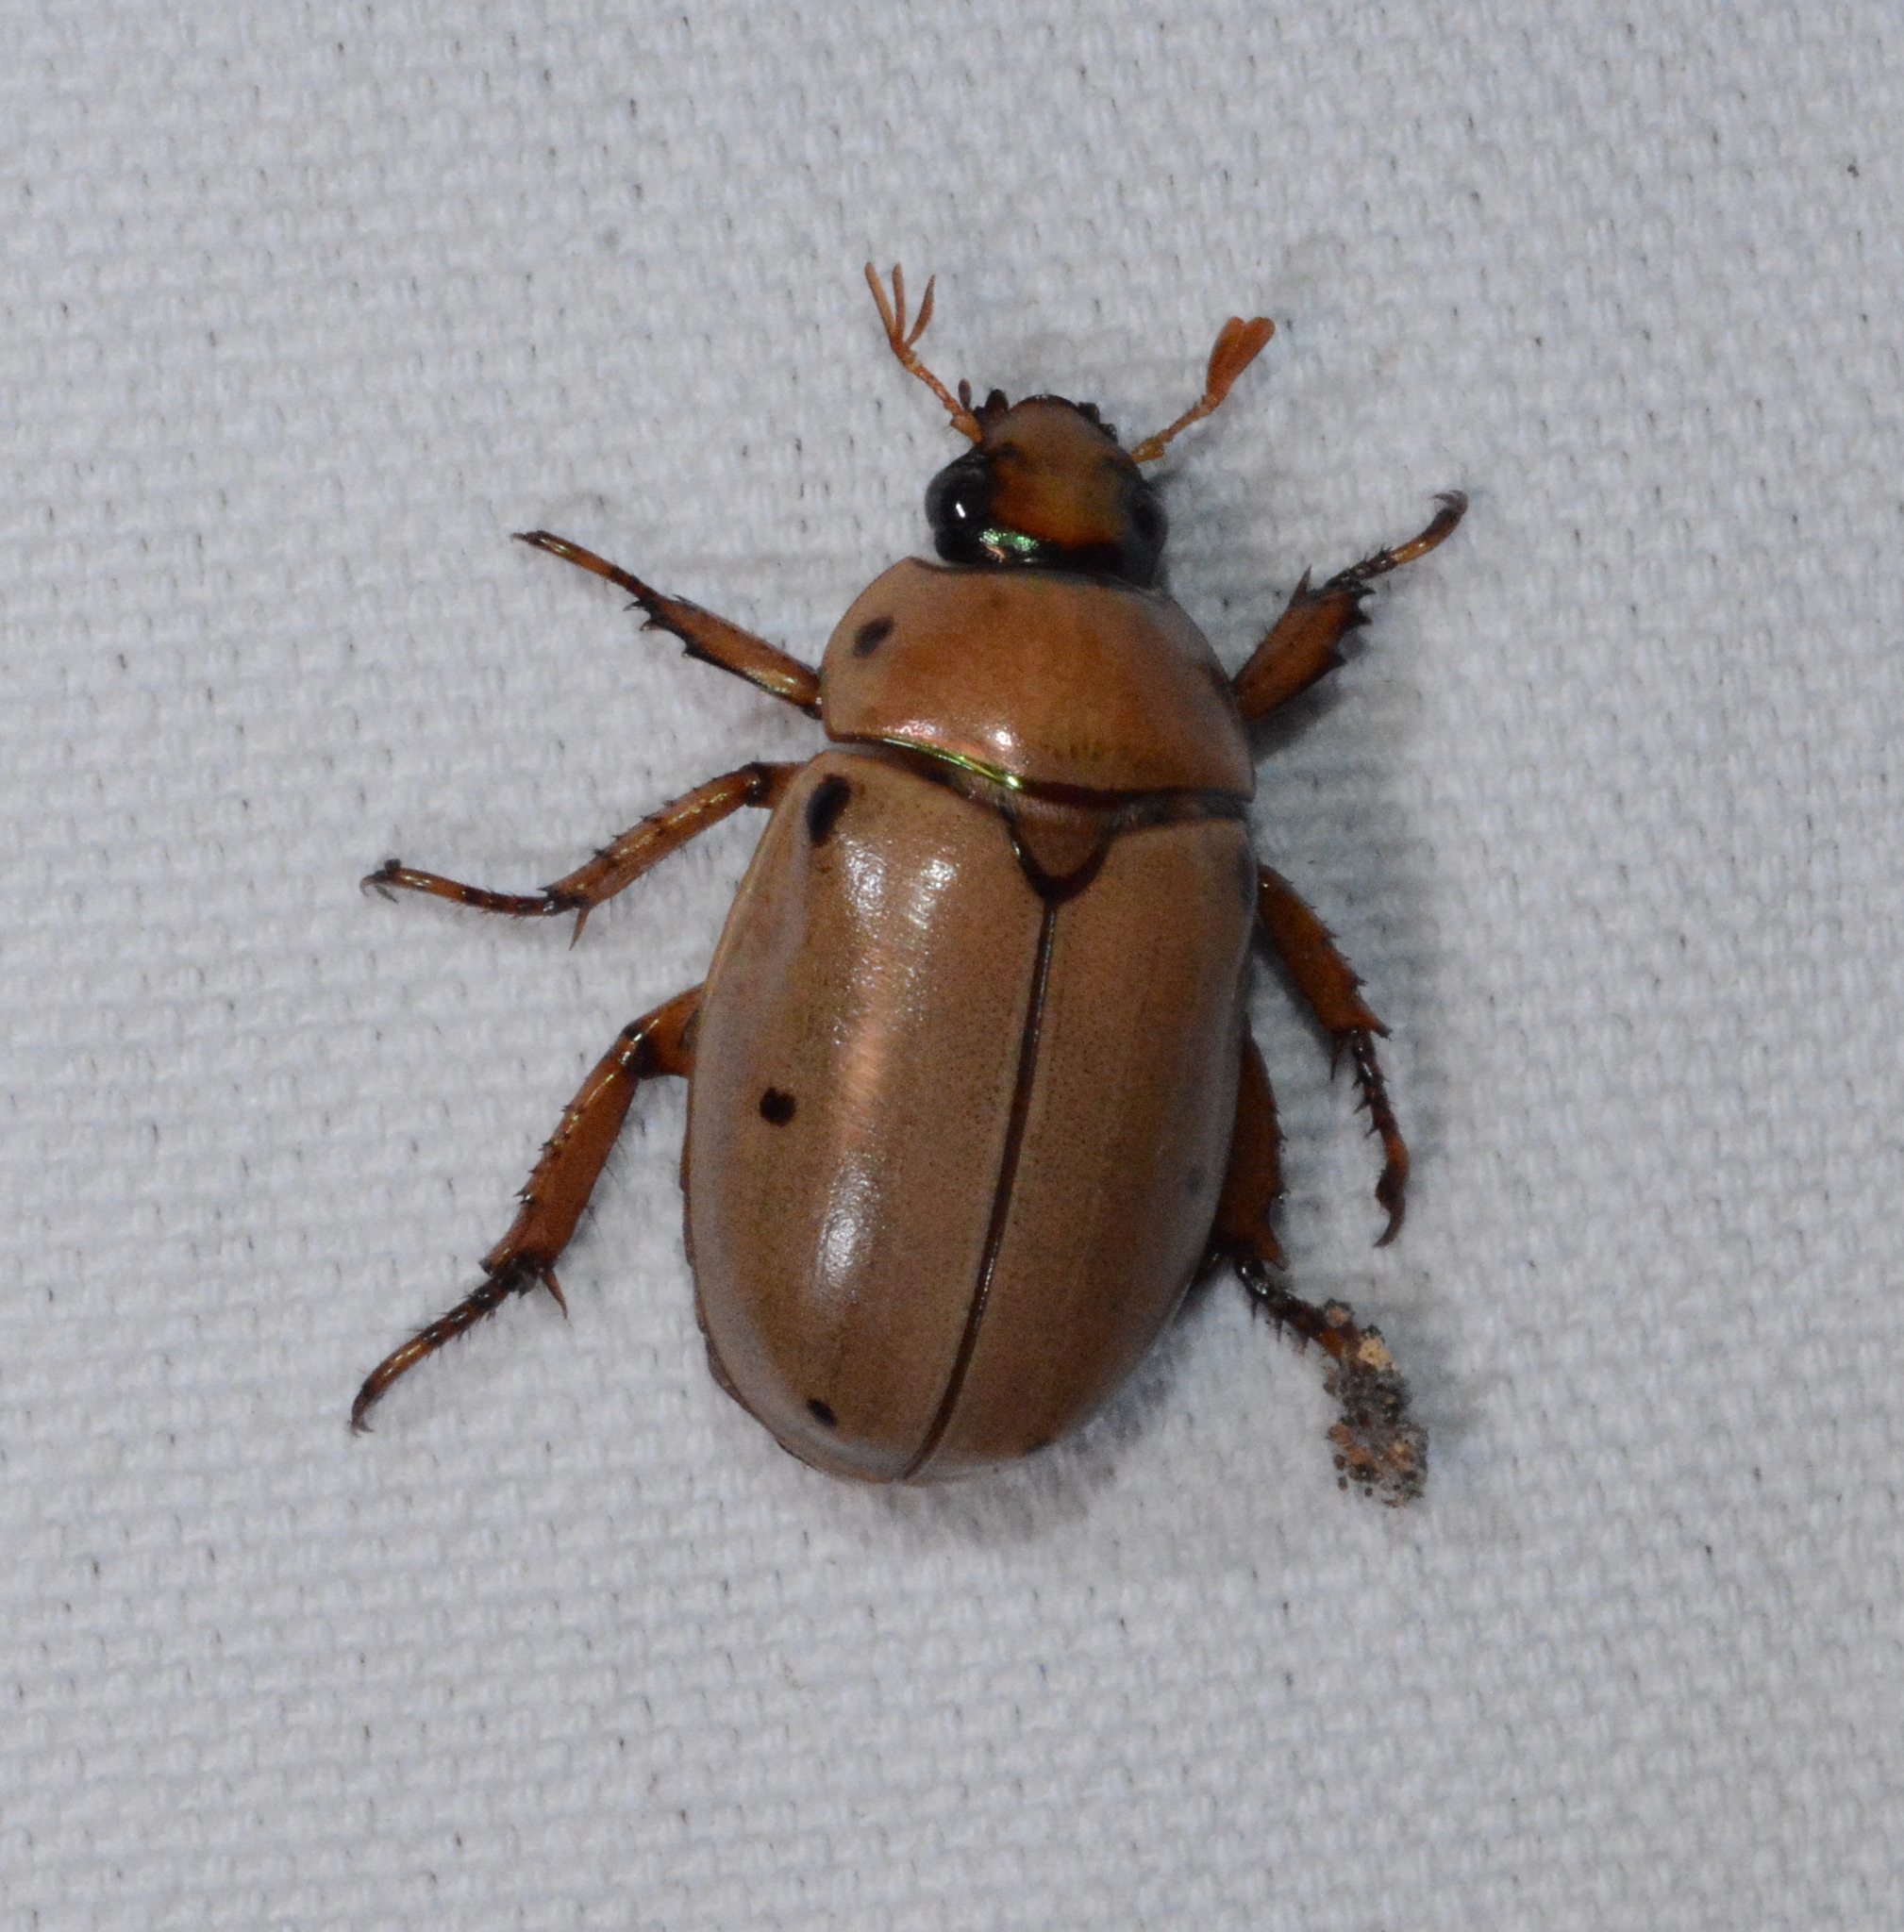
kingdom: Animalia
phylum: Arthropoda
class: Insecta
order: Coleoptera
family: Scarabaeidae
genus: Pelidnota
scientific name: Pelidnota punctata
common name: Grapevine beetle
